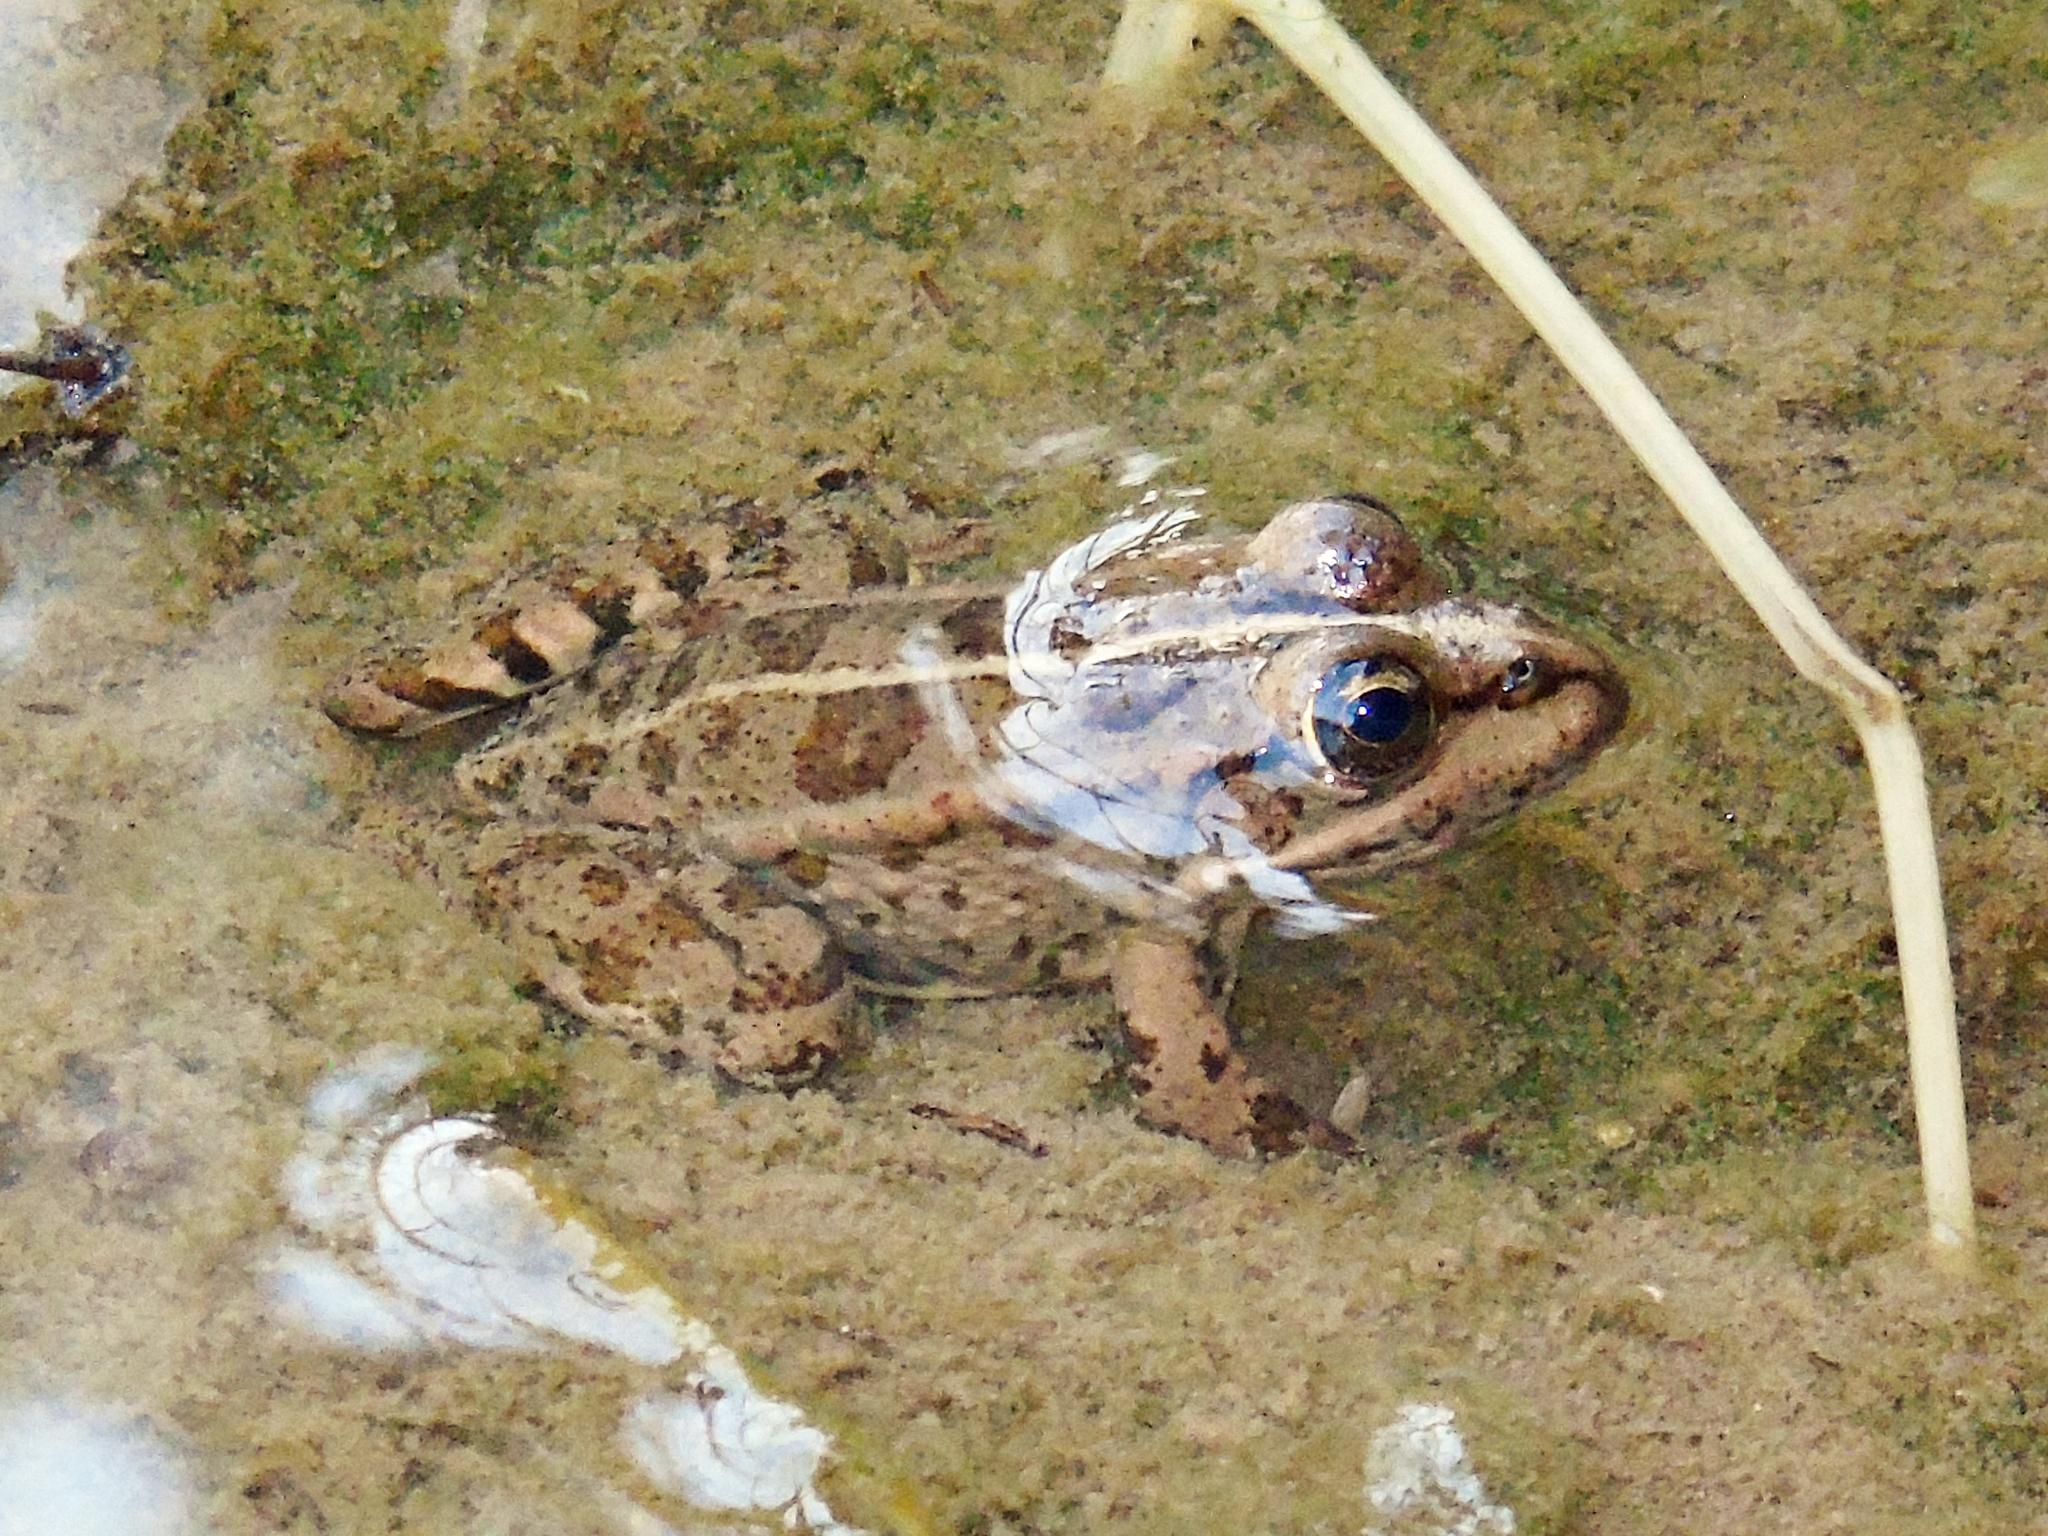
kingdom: Animalia
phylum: Chordata
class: Amphibia
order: Anura
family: Ranidae
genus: Pelophylax
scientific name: Pelophylax ridibundus
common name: Marsh frog
